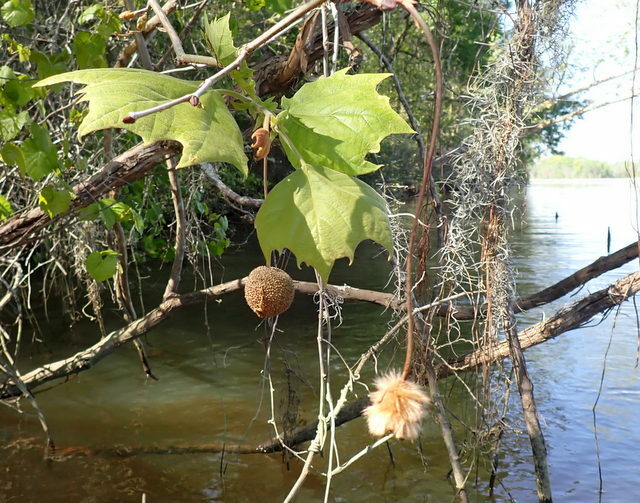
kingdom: Plantae
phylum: Tracheophyta
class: Magnoliopsida
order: Proteales
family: Platanaceae
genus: Platanus
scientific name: Platanus occidentalis
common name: American sycamore
